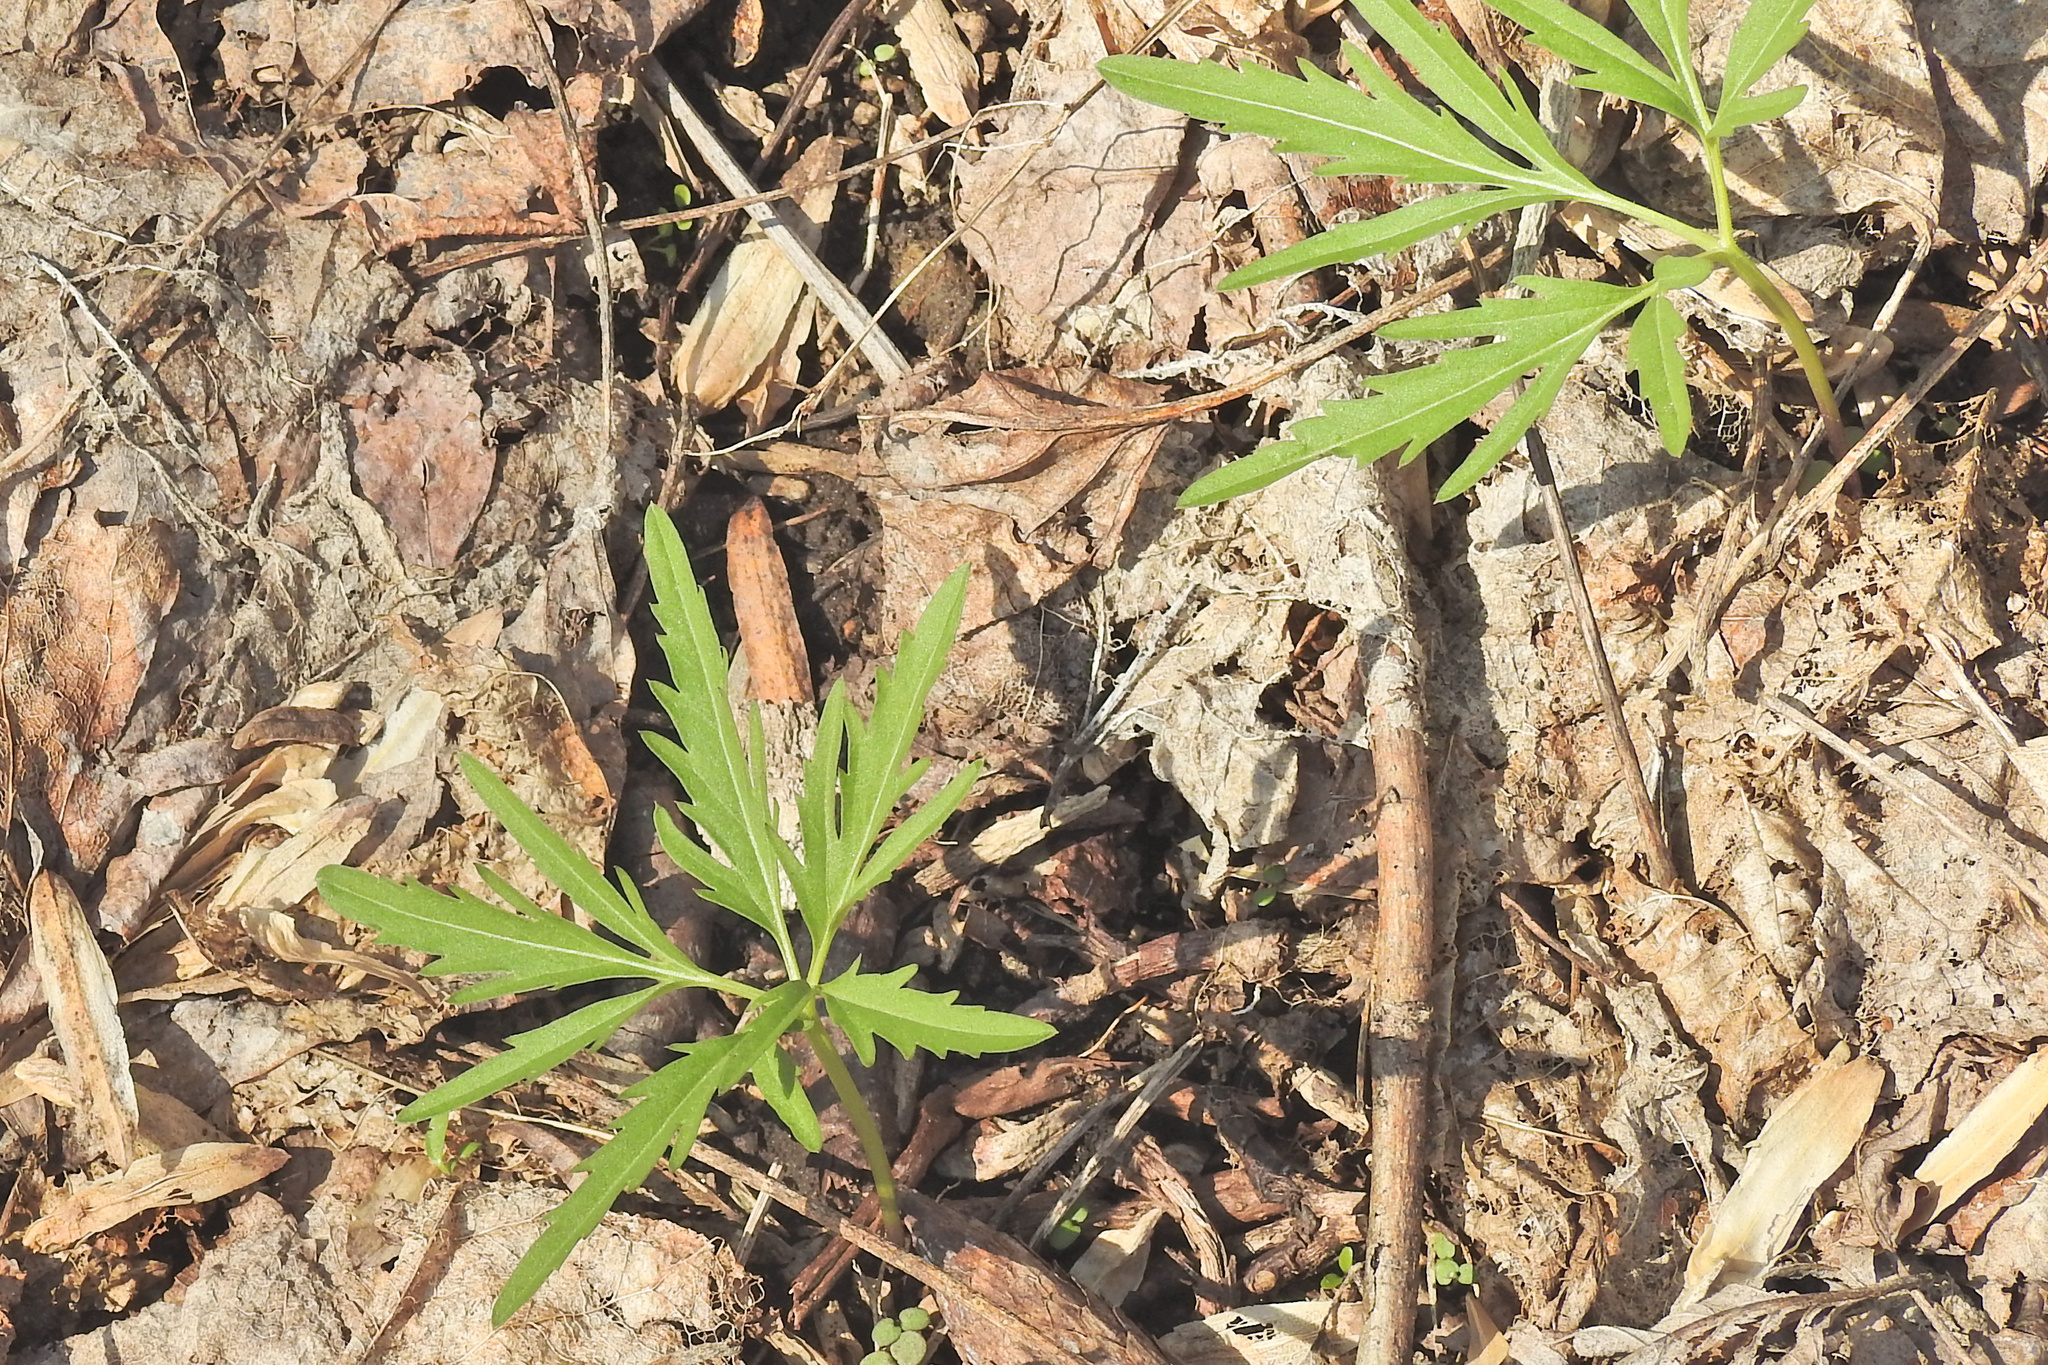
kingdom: Plantae
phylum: Tracheophyta
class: Magnoliopsida
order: Brassicales
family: Brassicaceae
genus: Cardamine
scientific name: Cardamine concatenata
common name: Cut-leaf toothcup
